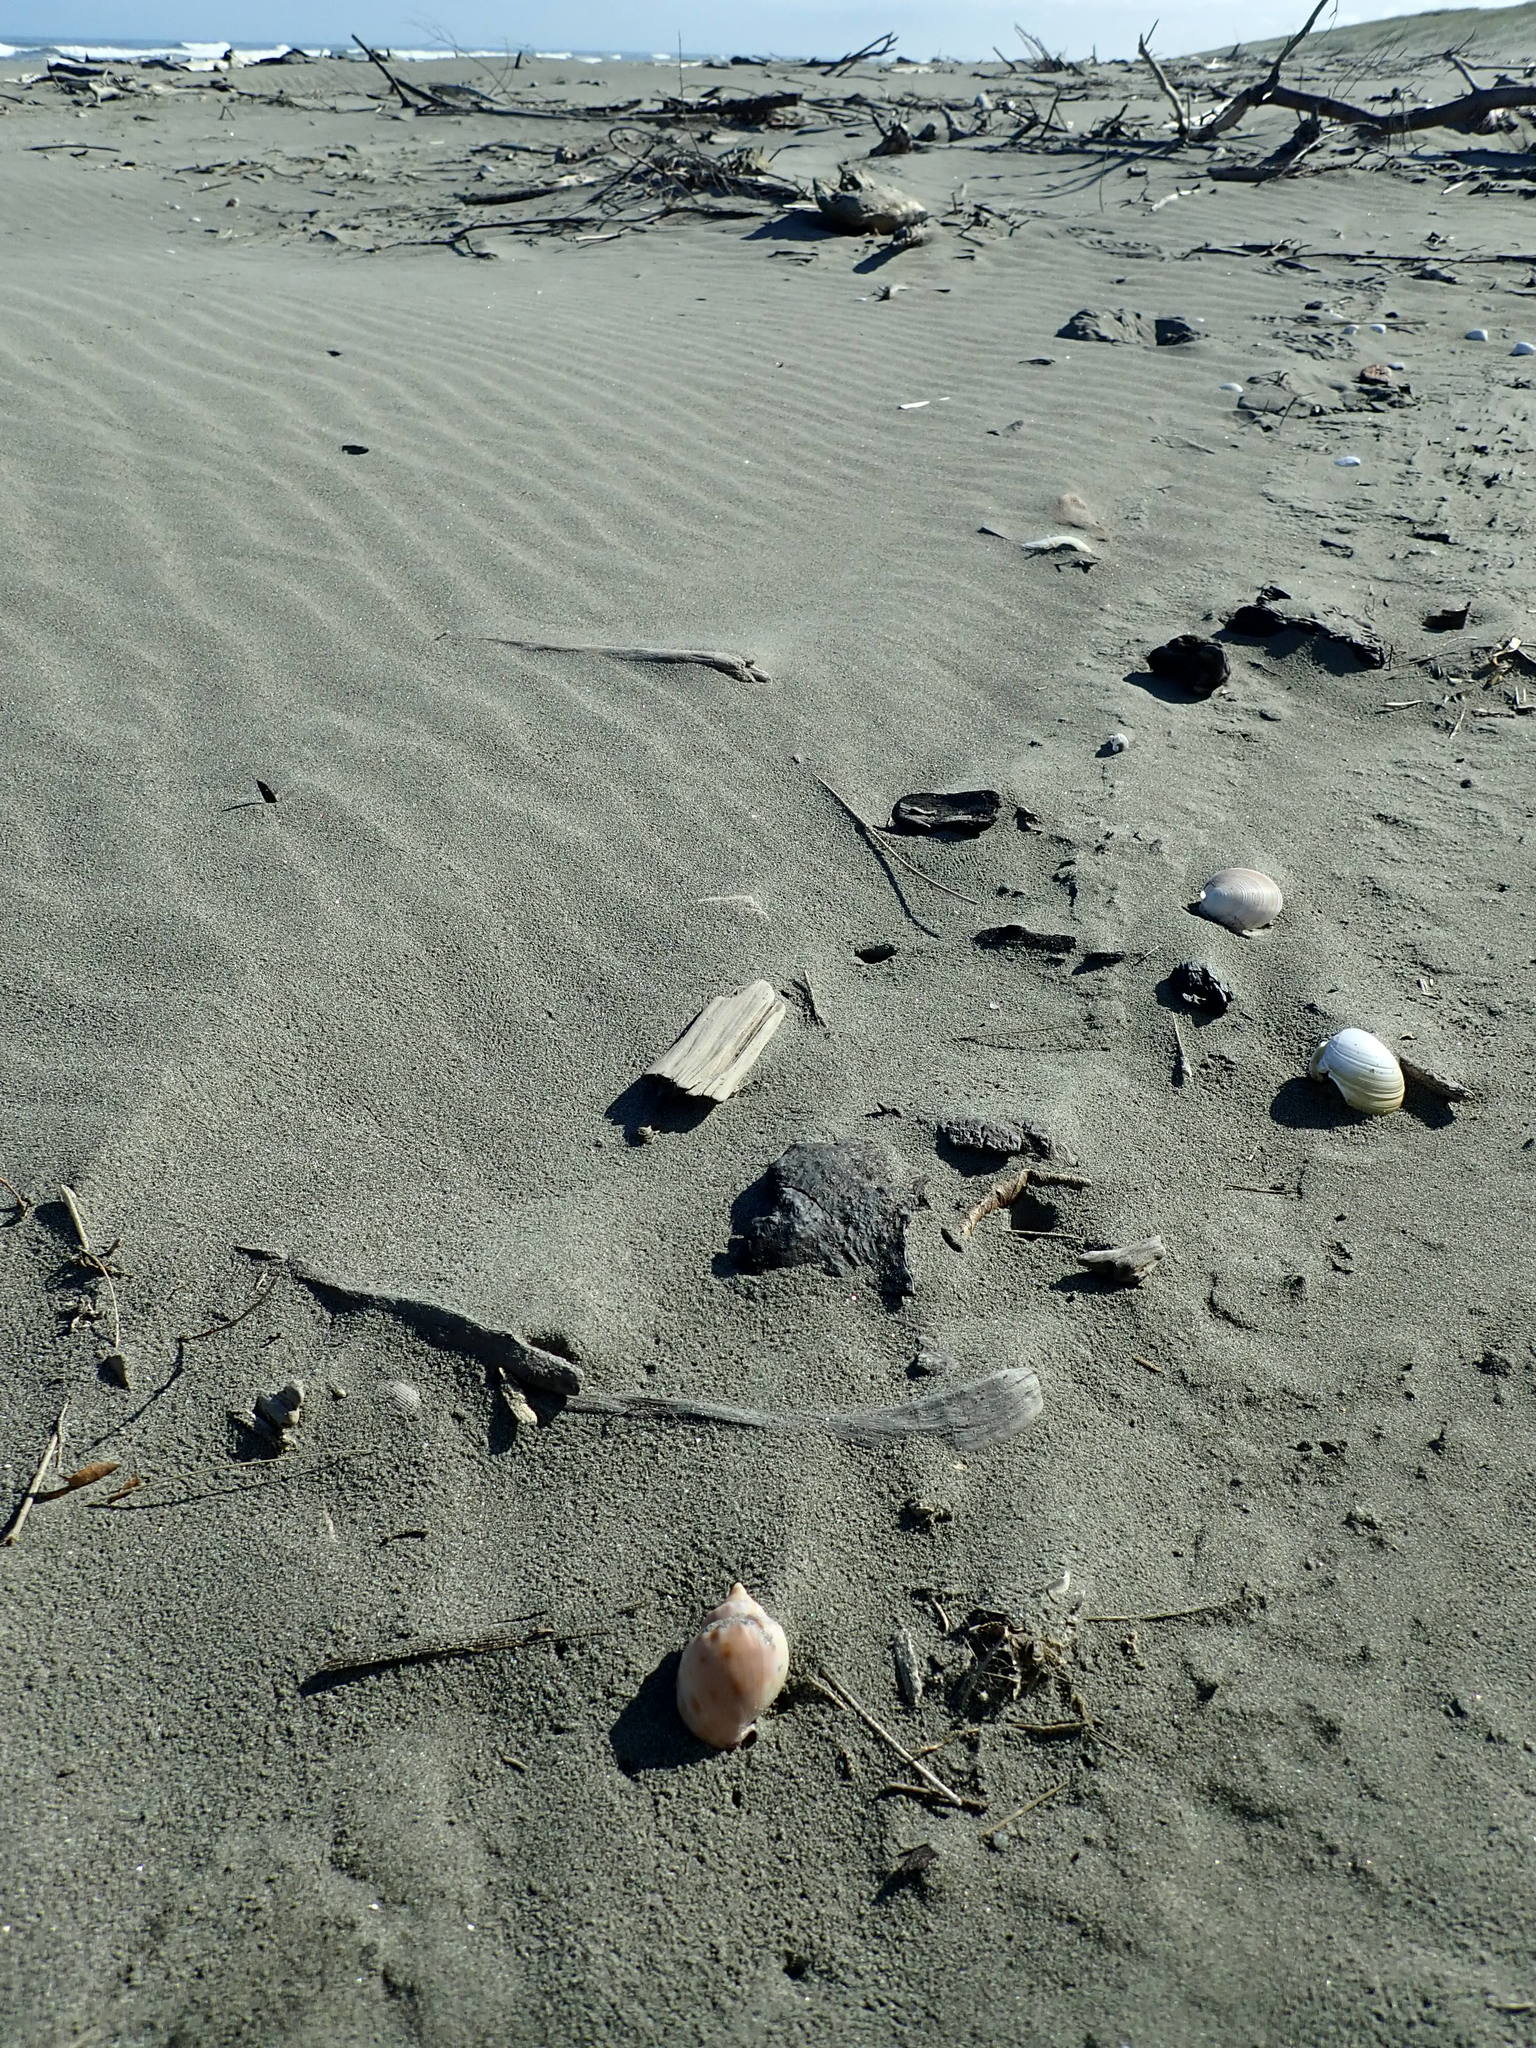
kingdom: Animalia
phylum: Mollusca
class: Gastropoda
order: Littorinimorpha
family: Cassidae
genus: Semicassis
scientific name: Semicassis pyrum
